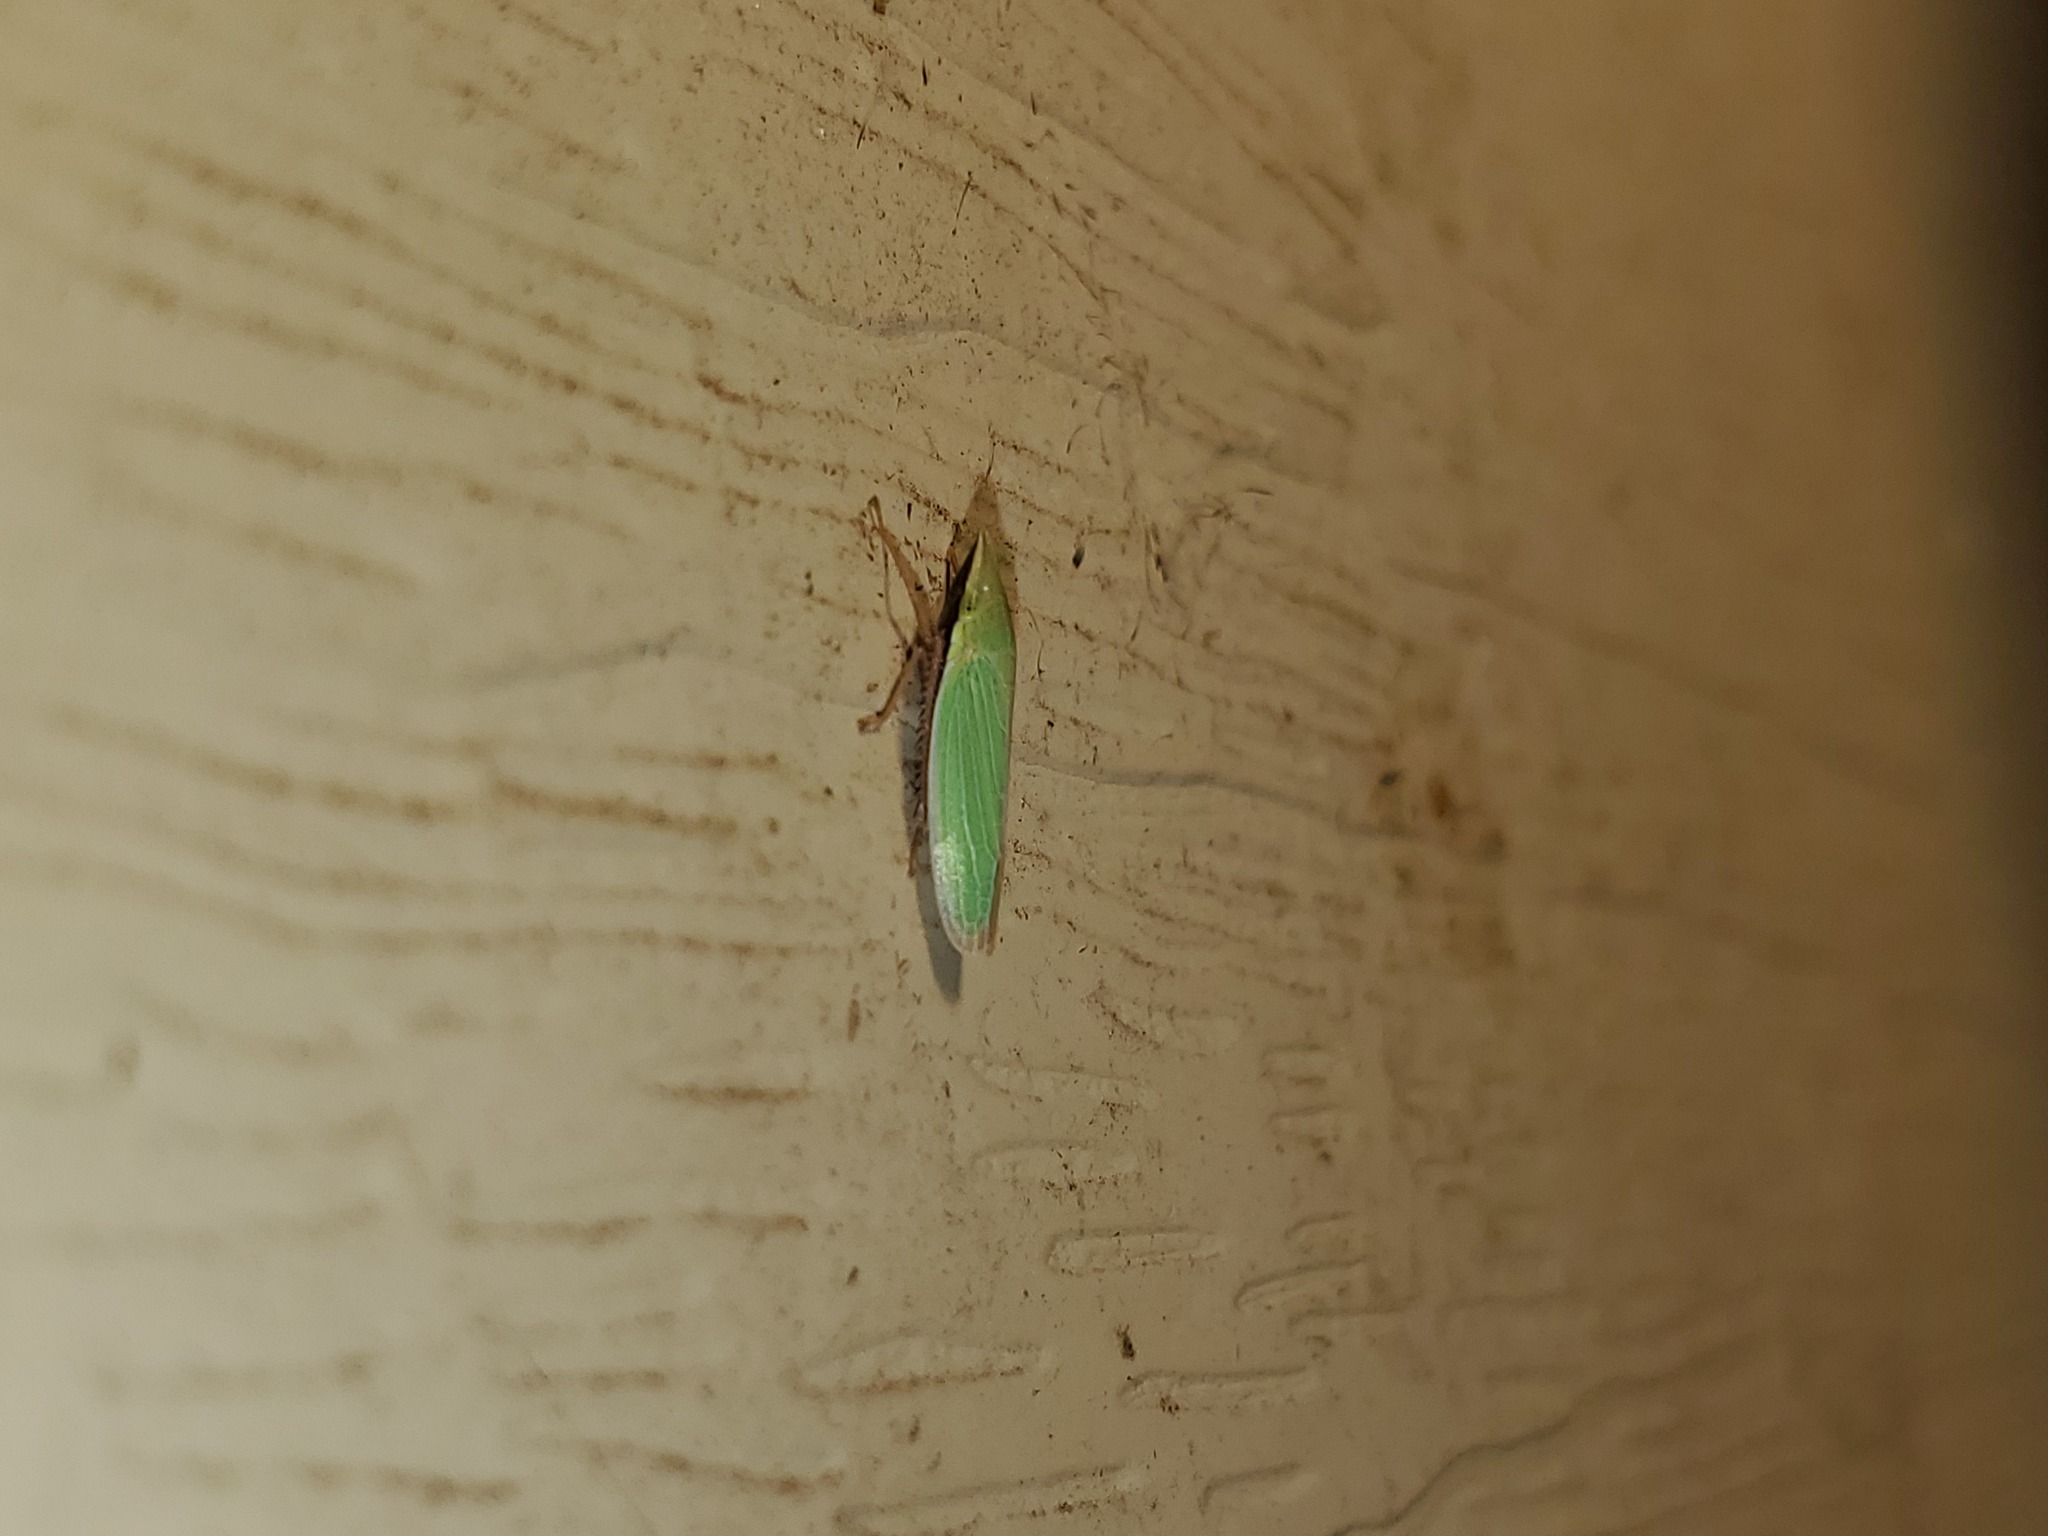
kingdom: Animalia
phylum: Arthropoda
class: Insecta
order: Hemiptera
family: Cicadellidae
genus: Draeculacephala
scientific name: Draeculacephala antica
